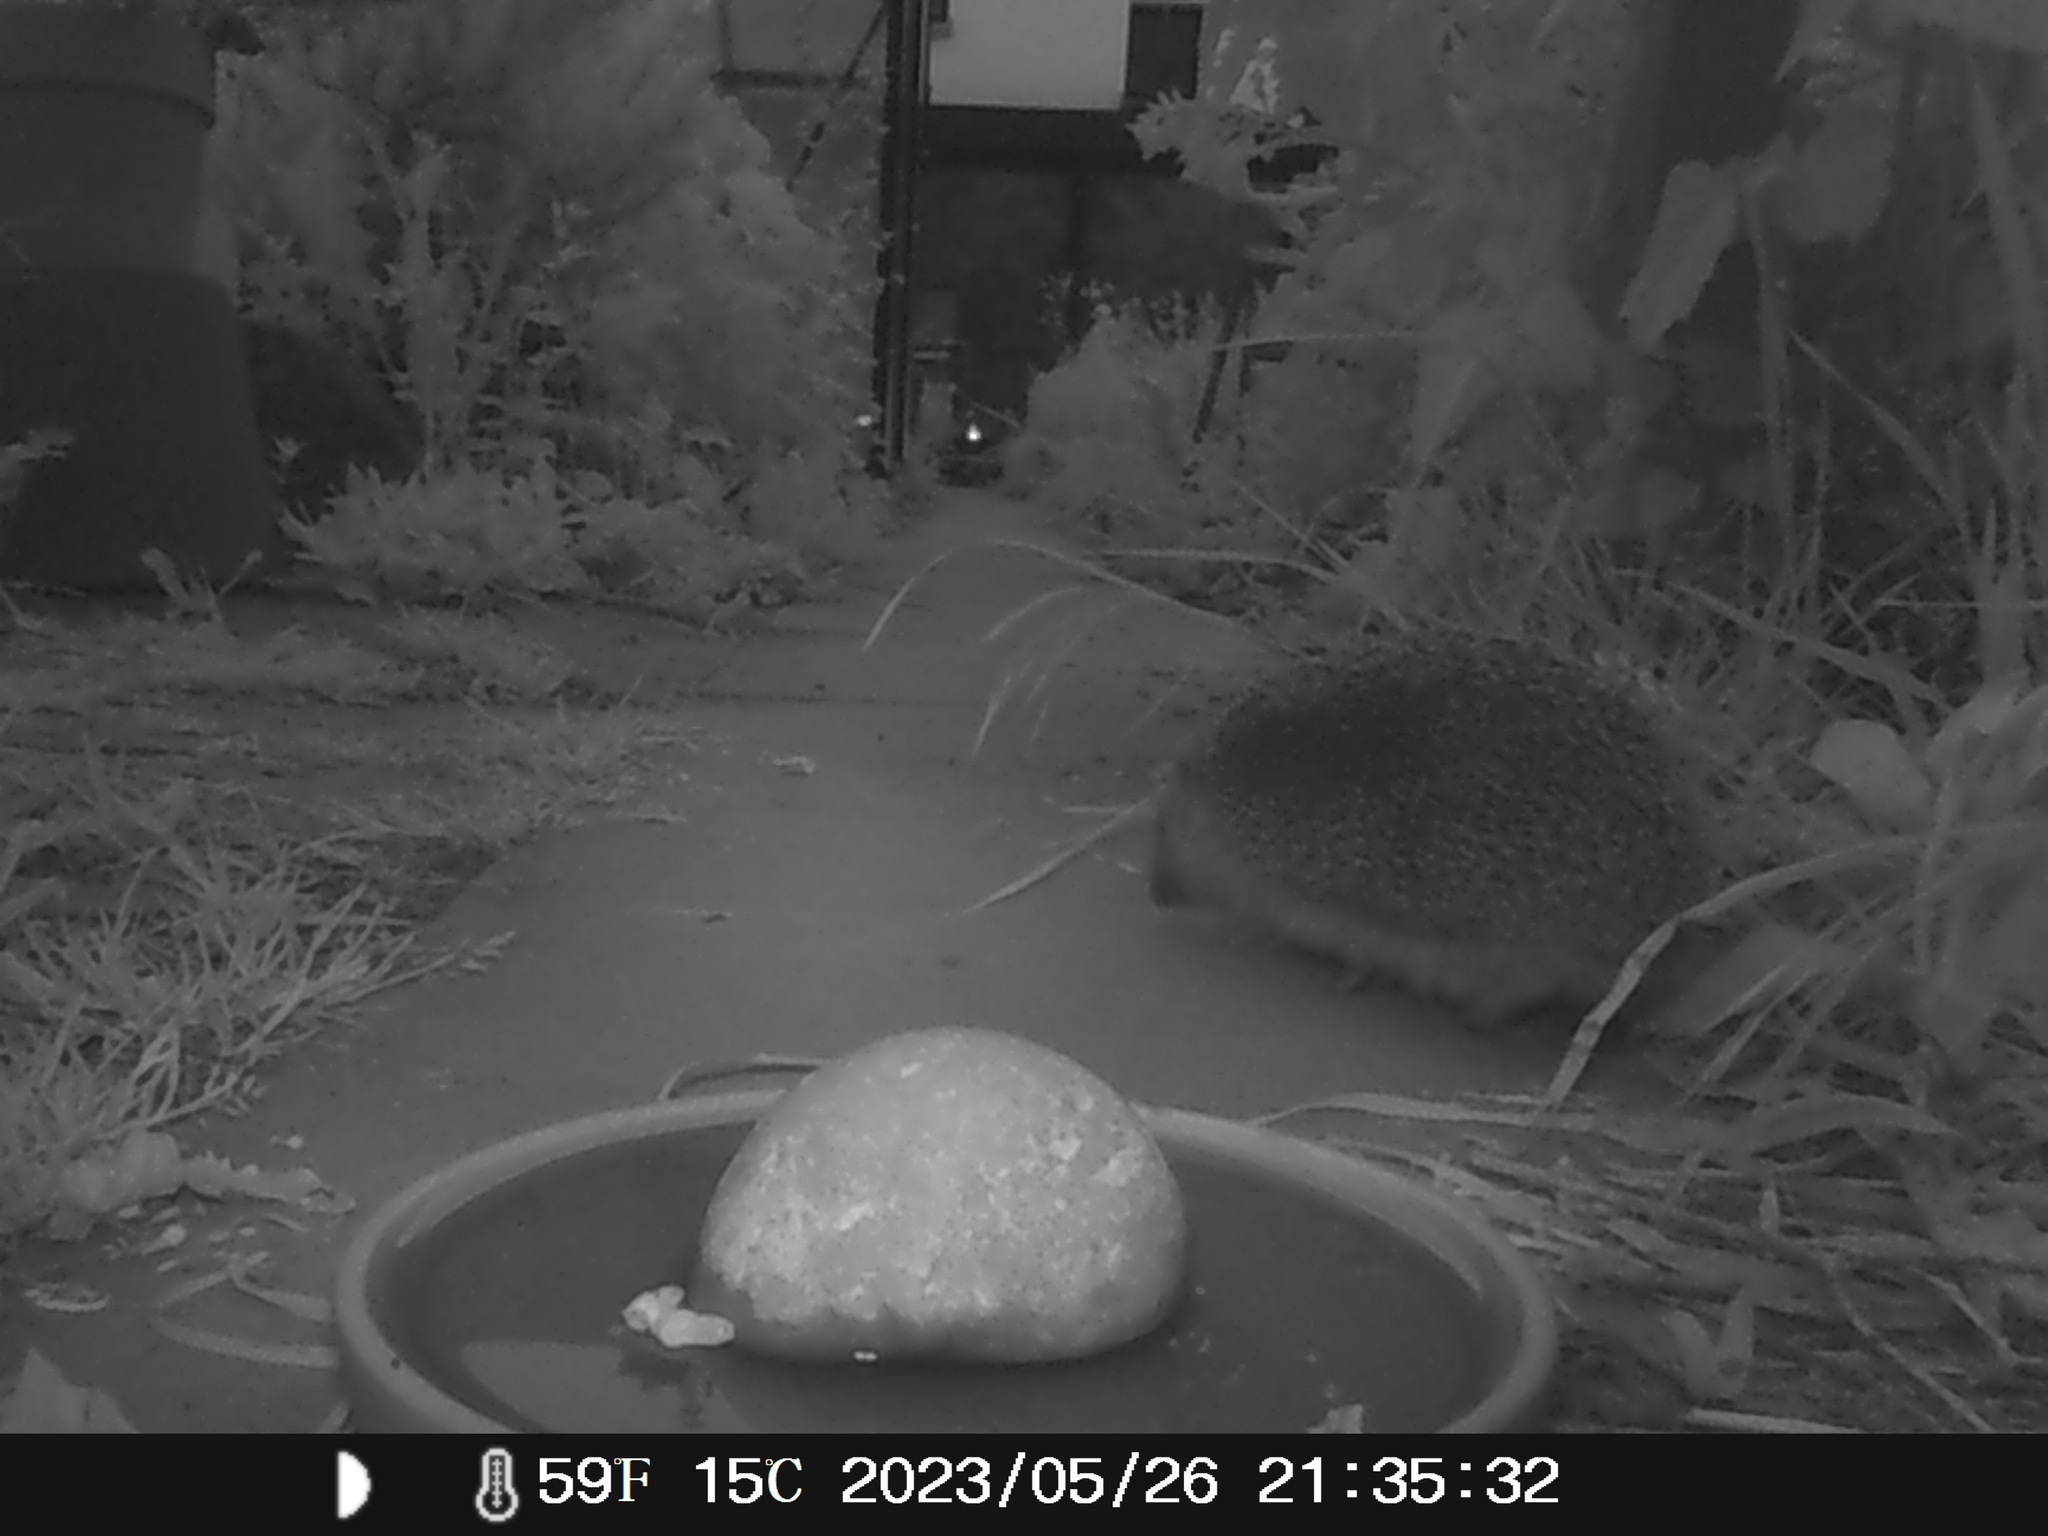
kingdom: Animalia
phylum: Chordata
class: Mammalia
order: Erinaceomorpha
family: Erinaceidae
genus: Erinaceus
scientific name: Erinaceus europaeus
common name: West european hedgehog
